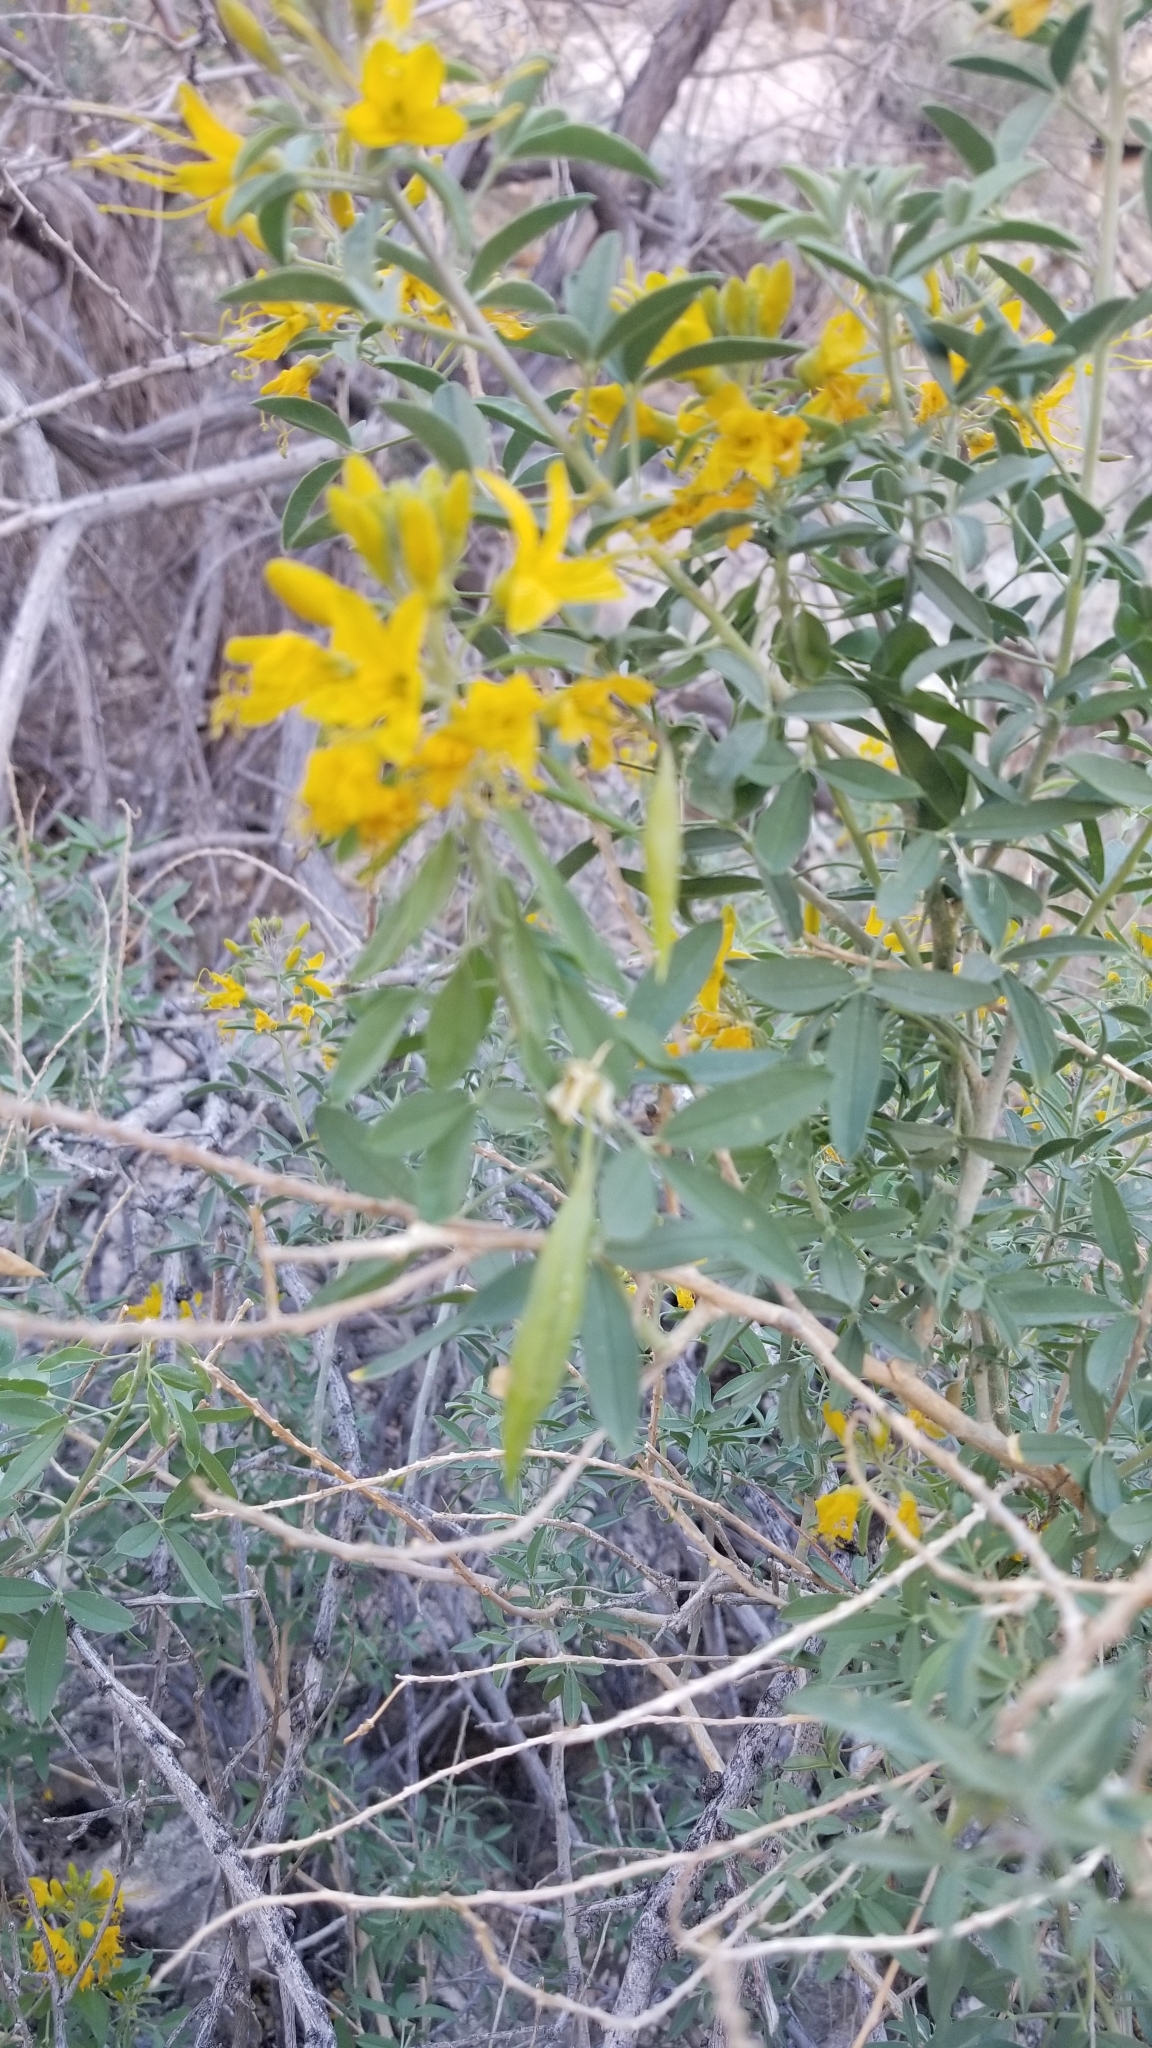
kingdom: Plantae
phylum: Tracheophyta
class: Magnoliopsida
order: Brassicales
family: Cleomaceae
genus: Cleomella
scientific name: Cleomella arborea
